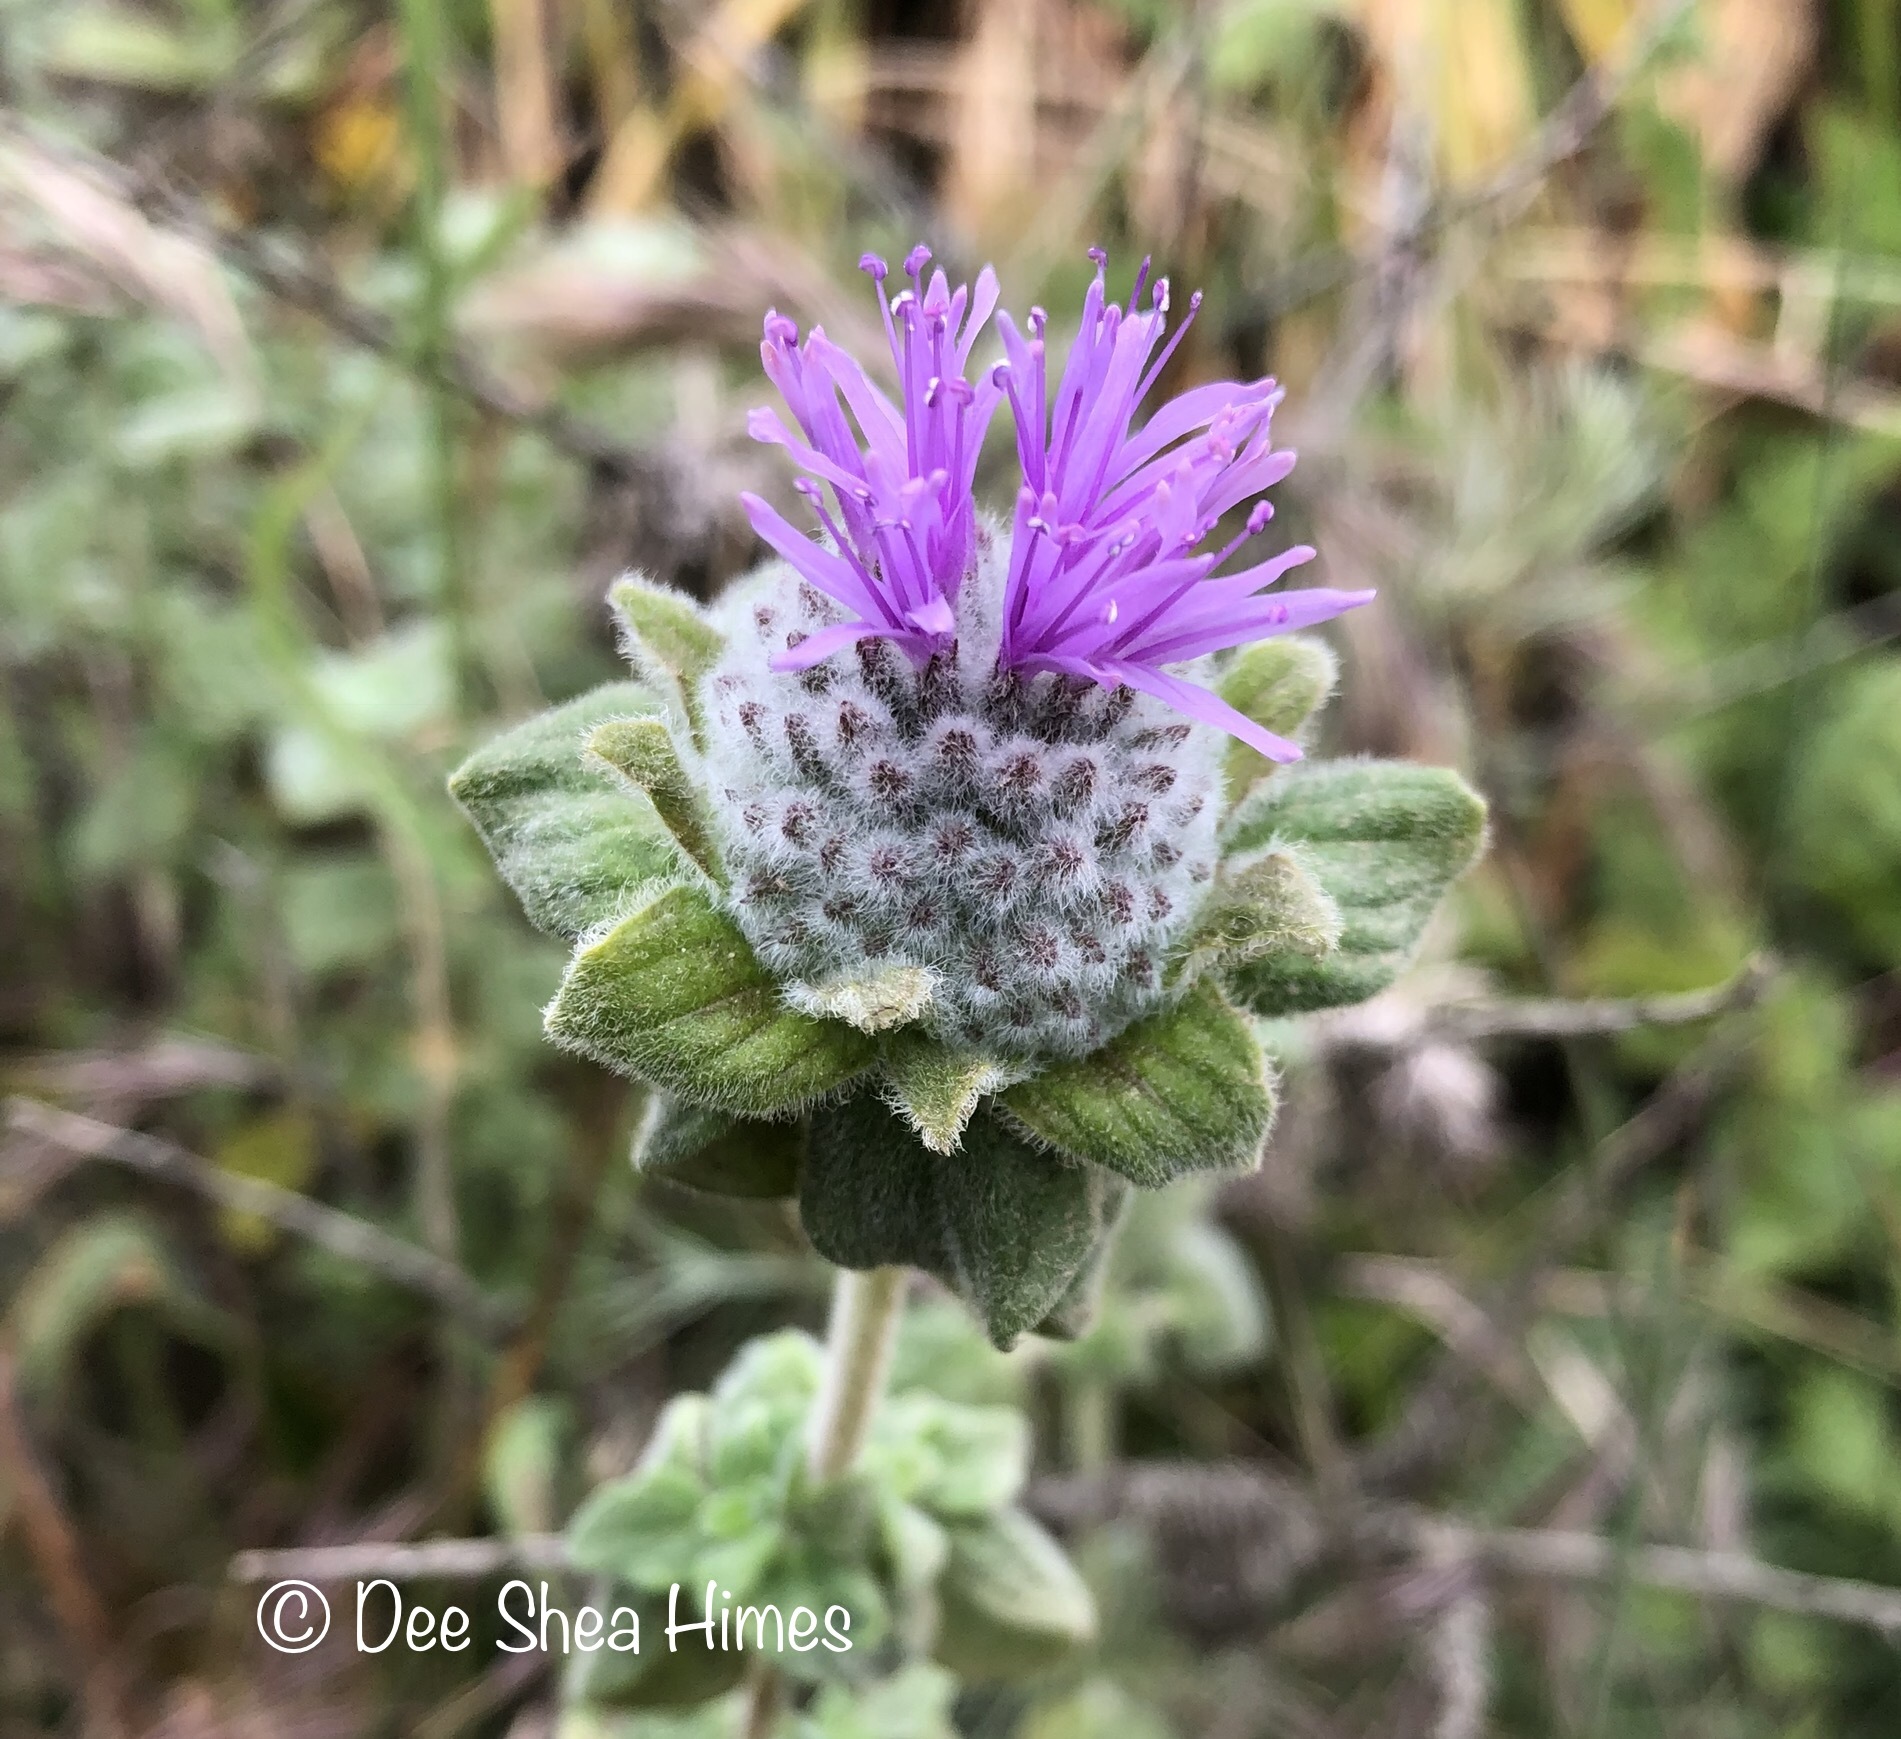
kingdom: Plantae
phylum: Tracheophyta
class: Magnoliopsida
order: Lamiales
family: Lamiaceae
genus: Monardella
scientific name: Monardella odoratissima
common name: Pacific monardella
